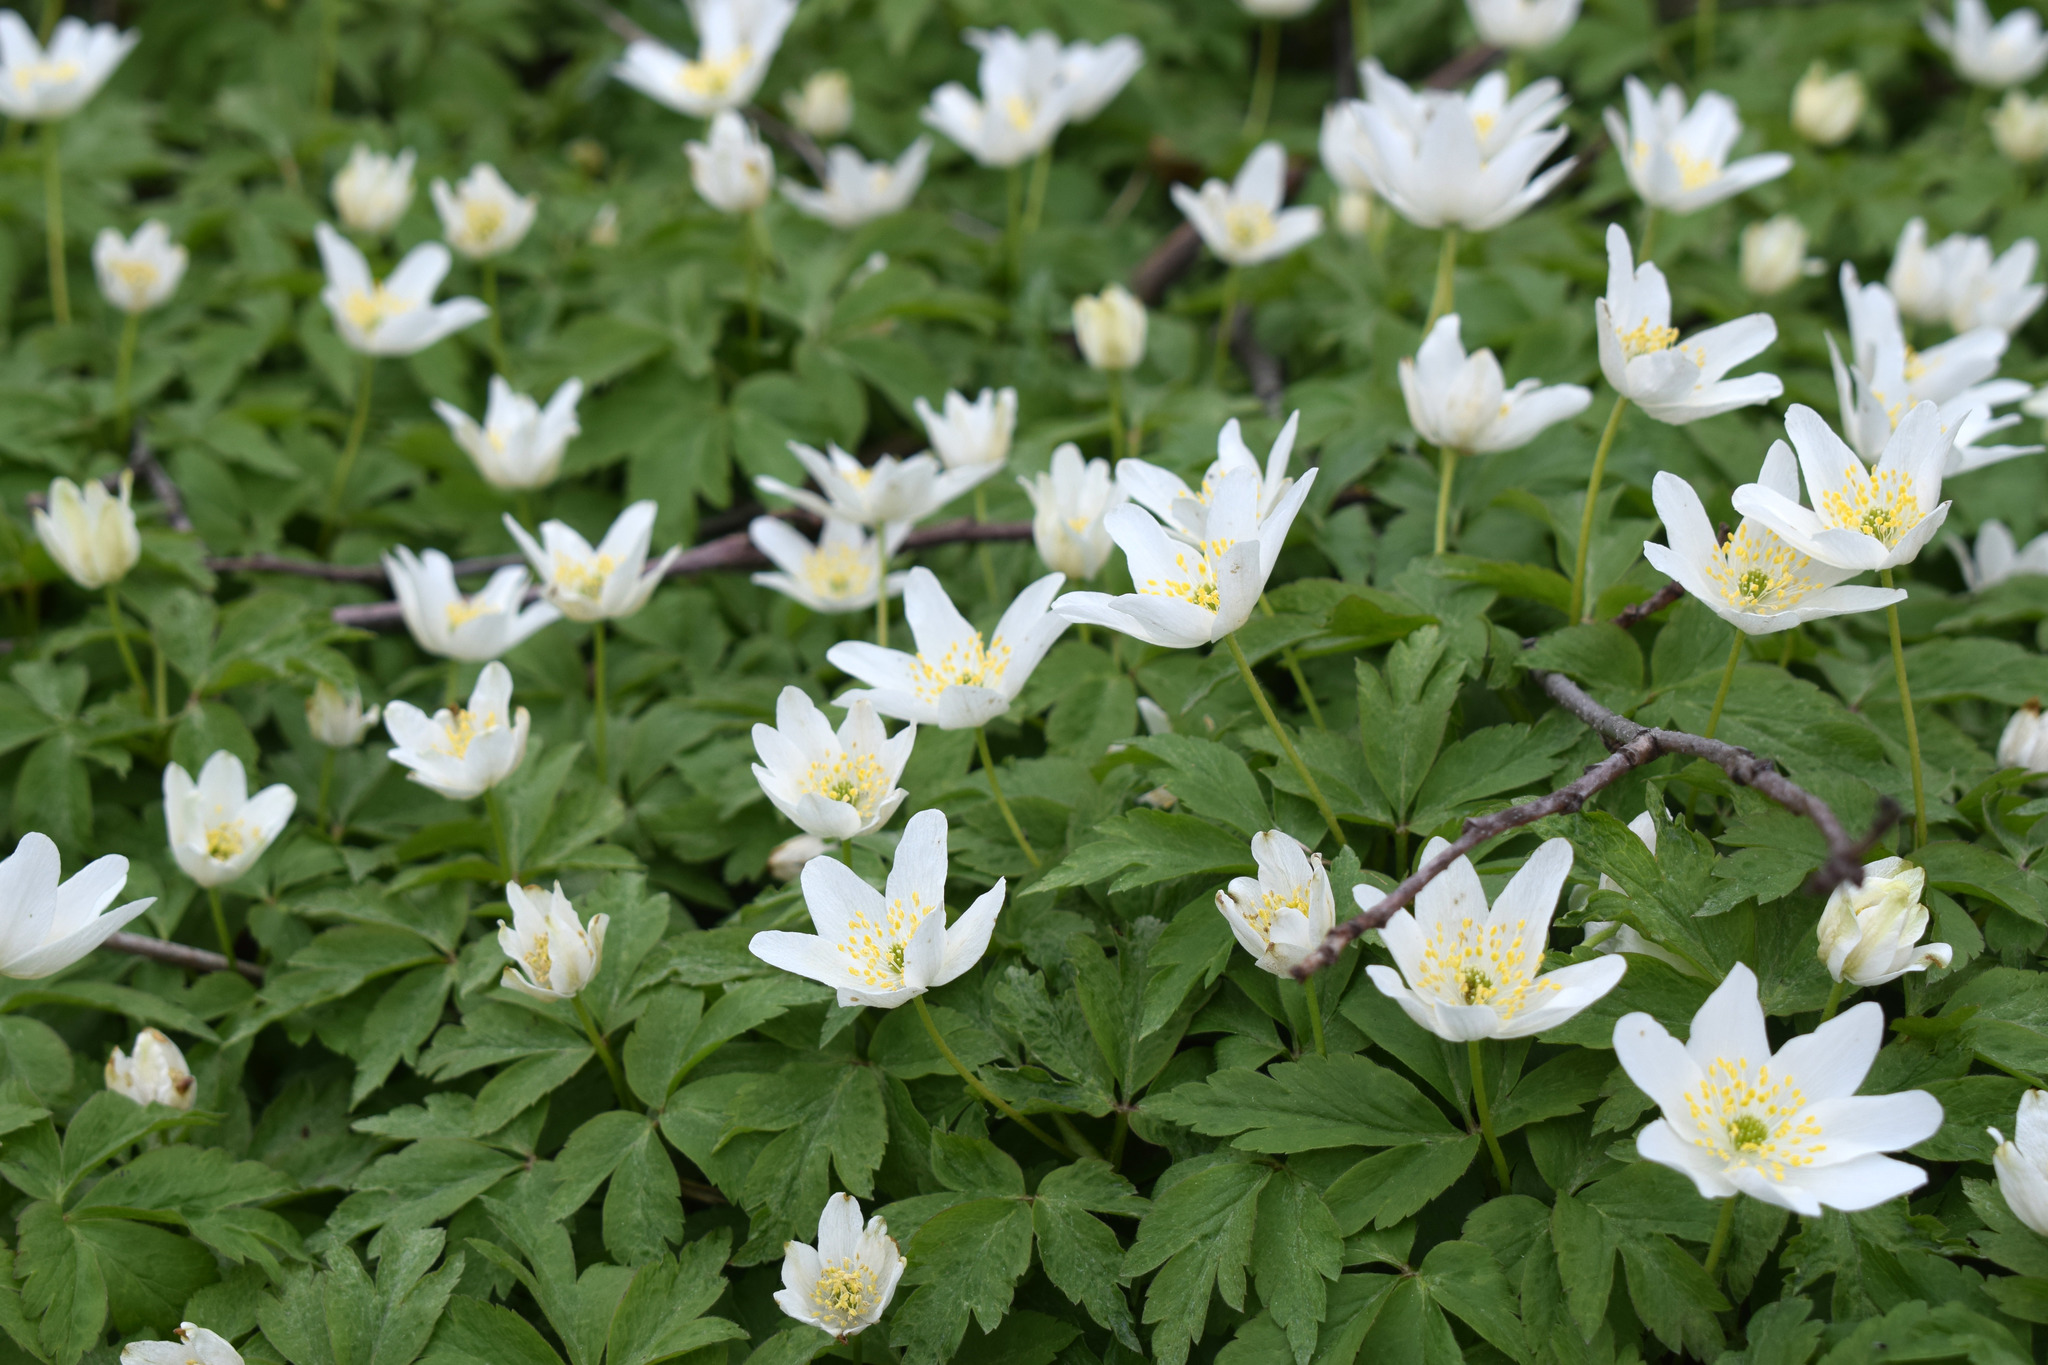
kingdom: Plantae
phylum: Tracheophyta
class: Magnoliopsida
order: Ranunculales
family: Ranunculaceae
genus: Anemone
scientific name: Anemone nemorosa
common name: Wood anemone
